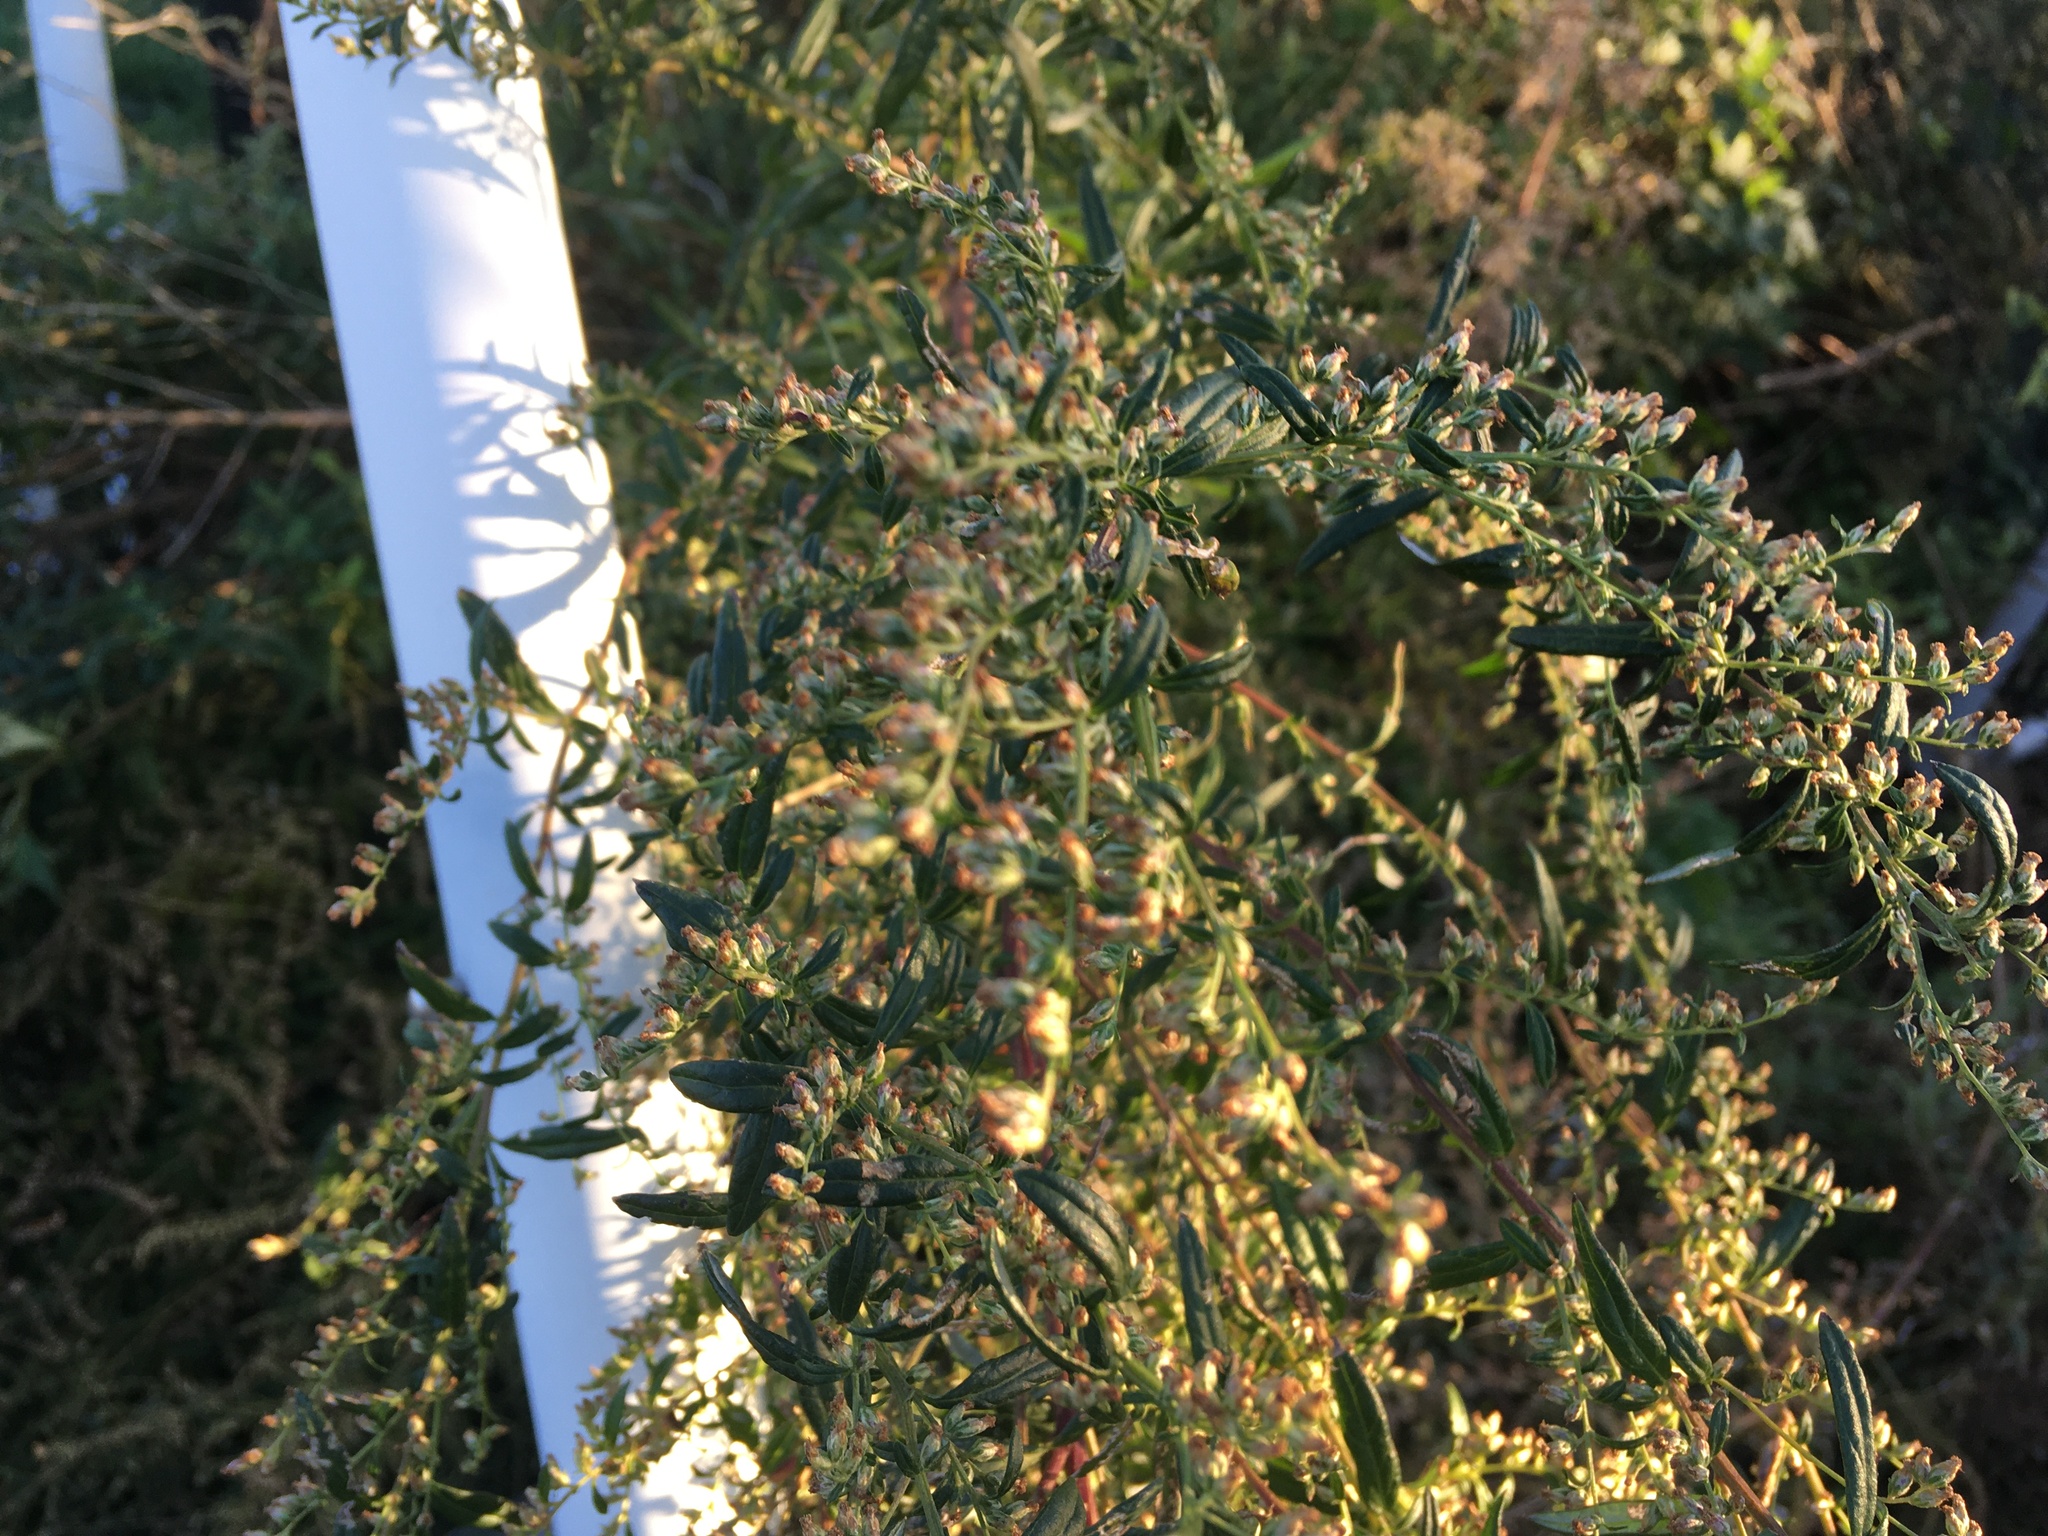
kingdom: Plantae
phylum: Tracheophyta
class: Magnoliopsida
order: Asterales
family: Asteraceae
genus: Artemisia
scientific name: Artemisia vulgaris
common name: Mugwort
